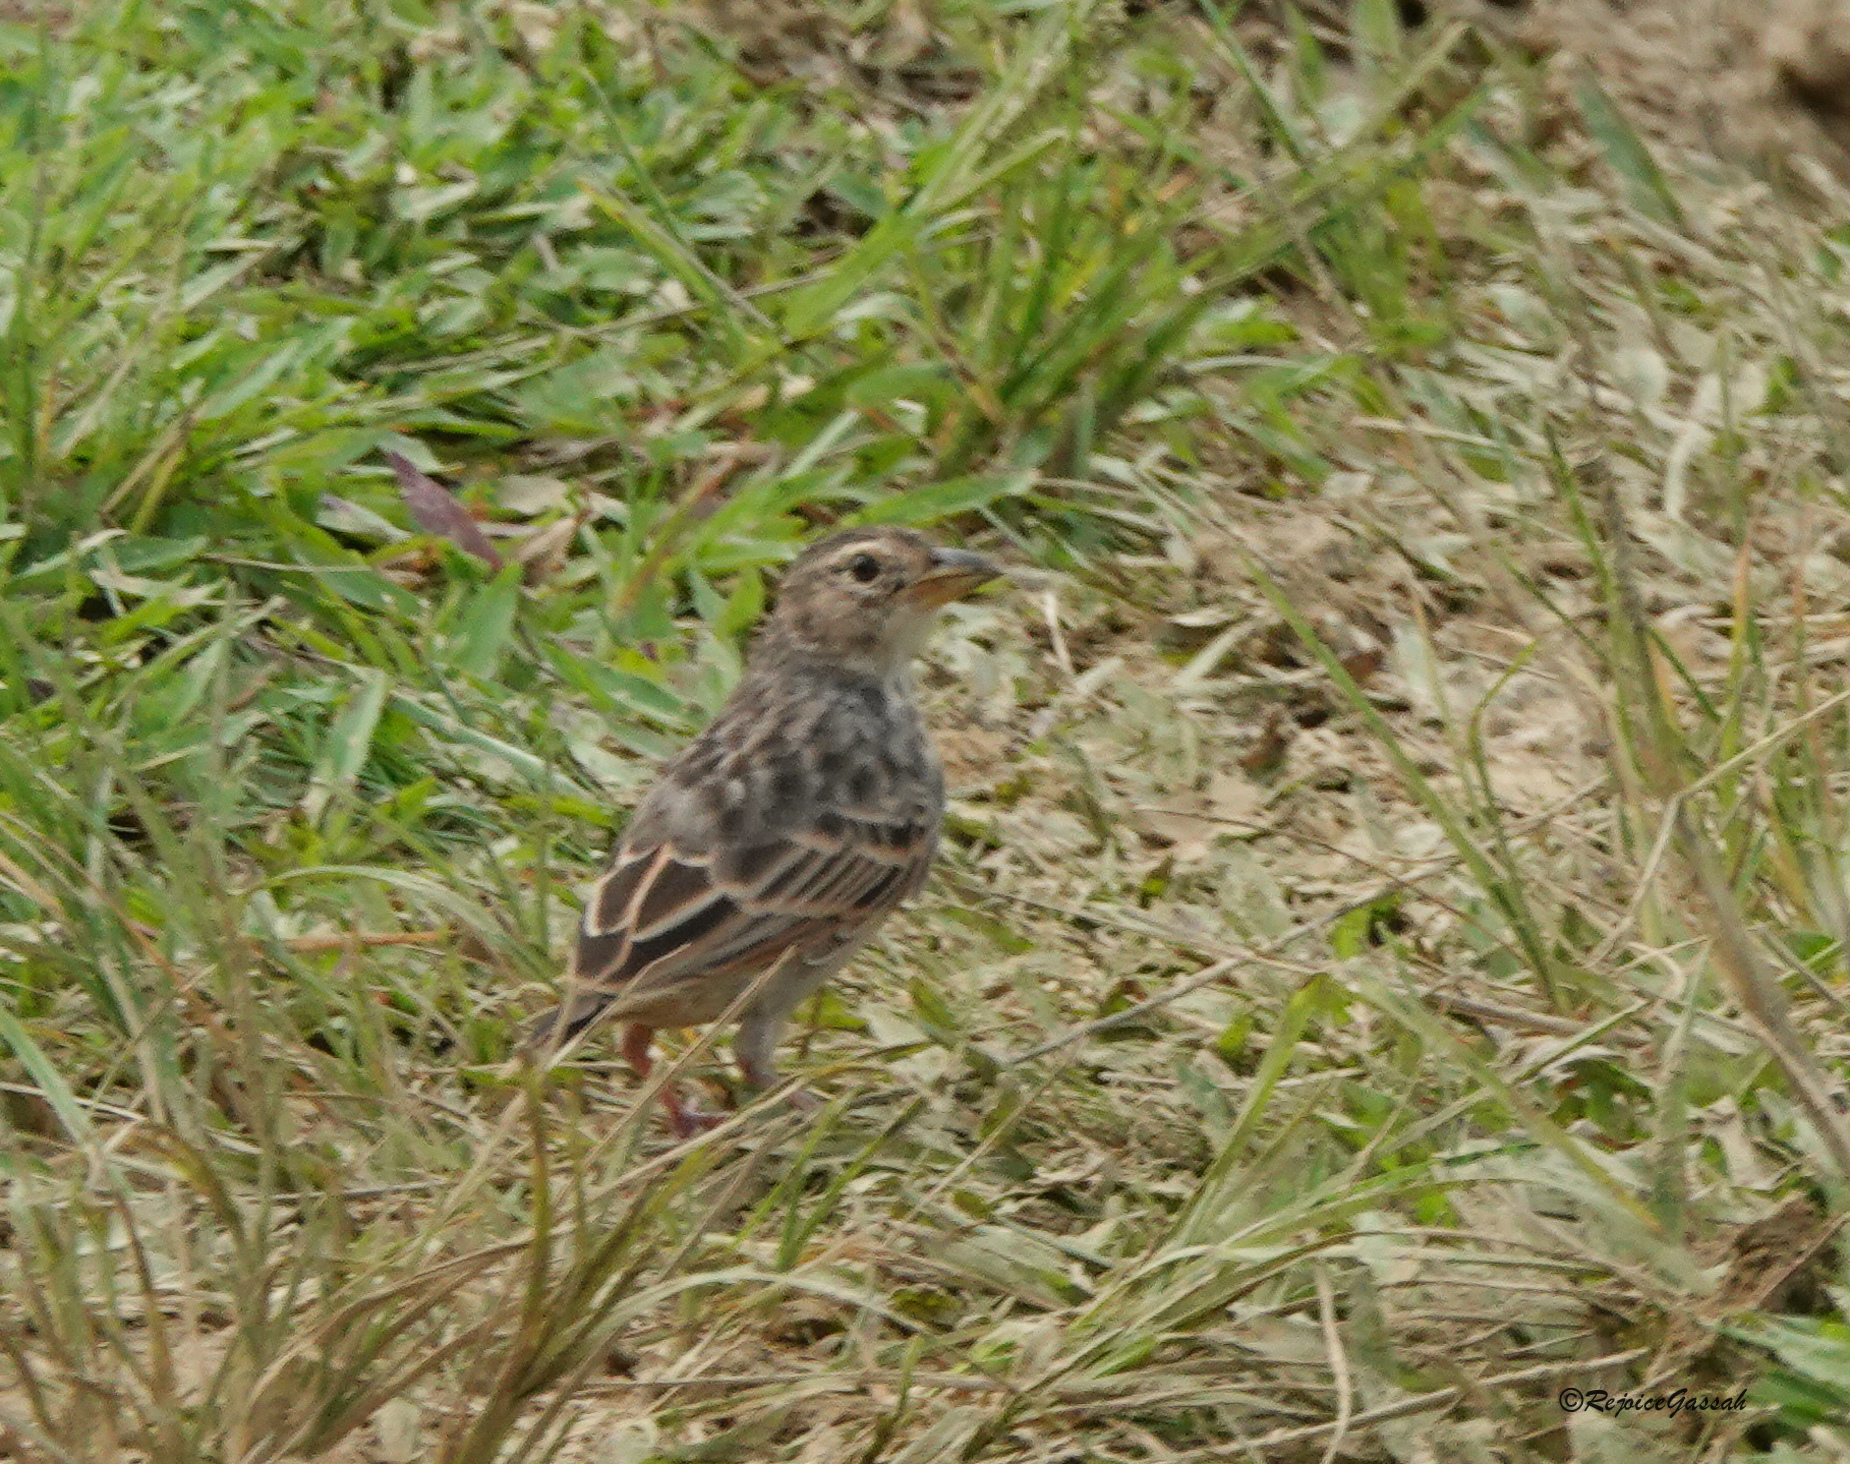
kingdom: Animalia
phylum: Chordata
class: Aves
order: Passeriformes
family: Alaudidae
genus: Mirafra
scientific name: Mirafra assamica
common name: Bengal bush lark
